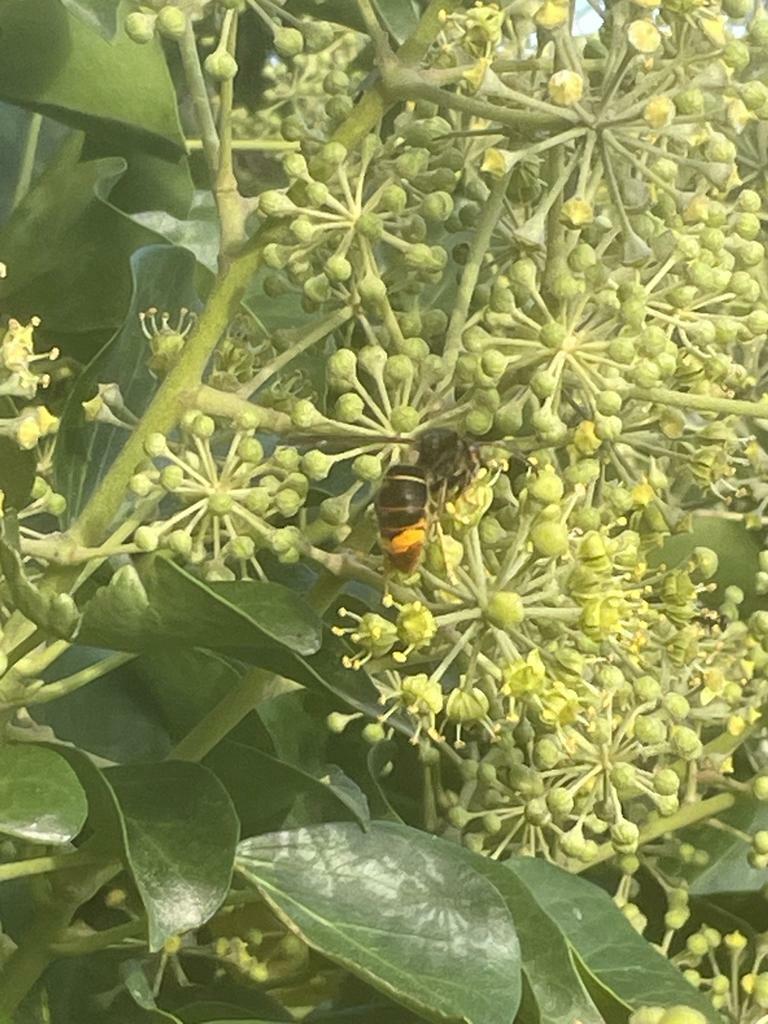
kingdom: Animalia
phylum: Arthropoda
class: Insecta
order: Hymenoptera
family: Vespidae
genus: Vespa
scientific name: Vespa velutina
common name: Asian hornet
